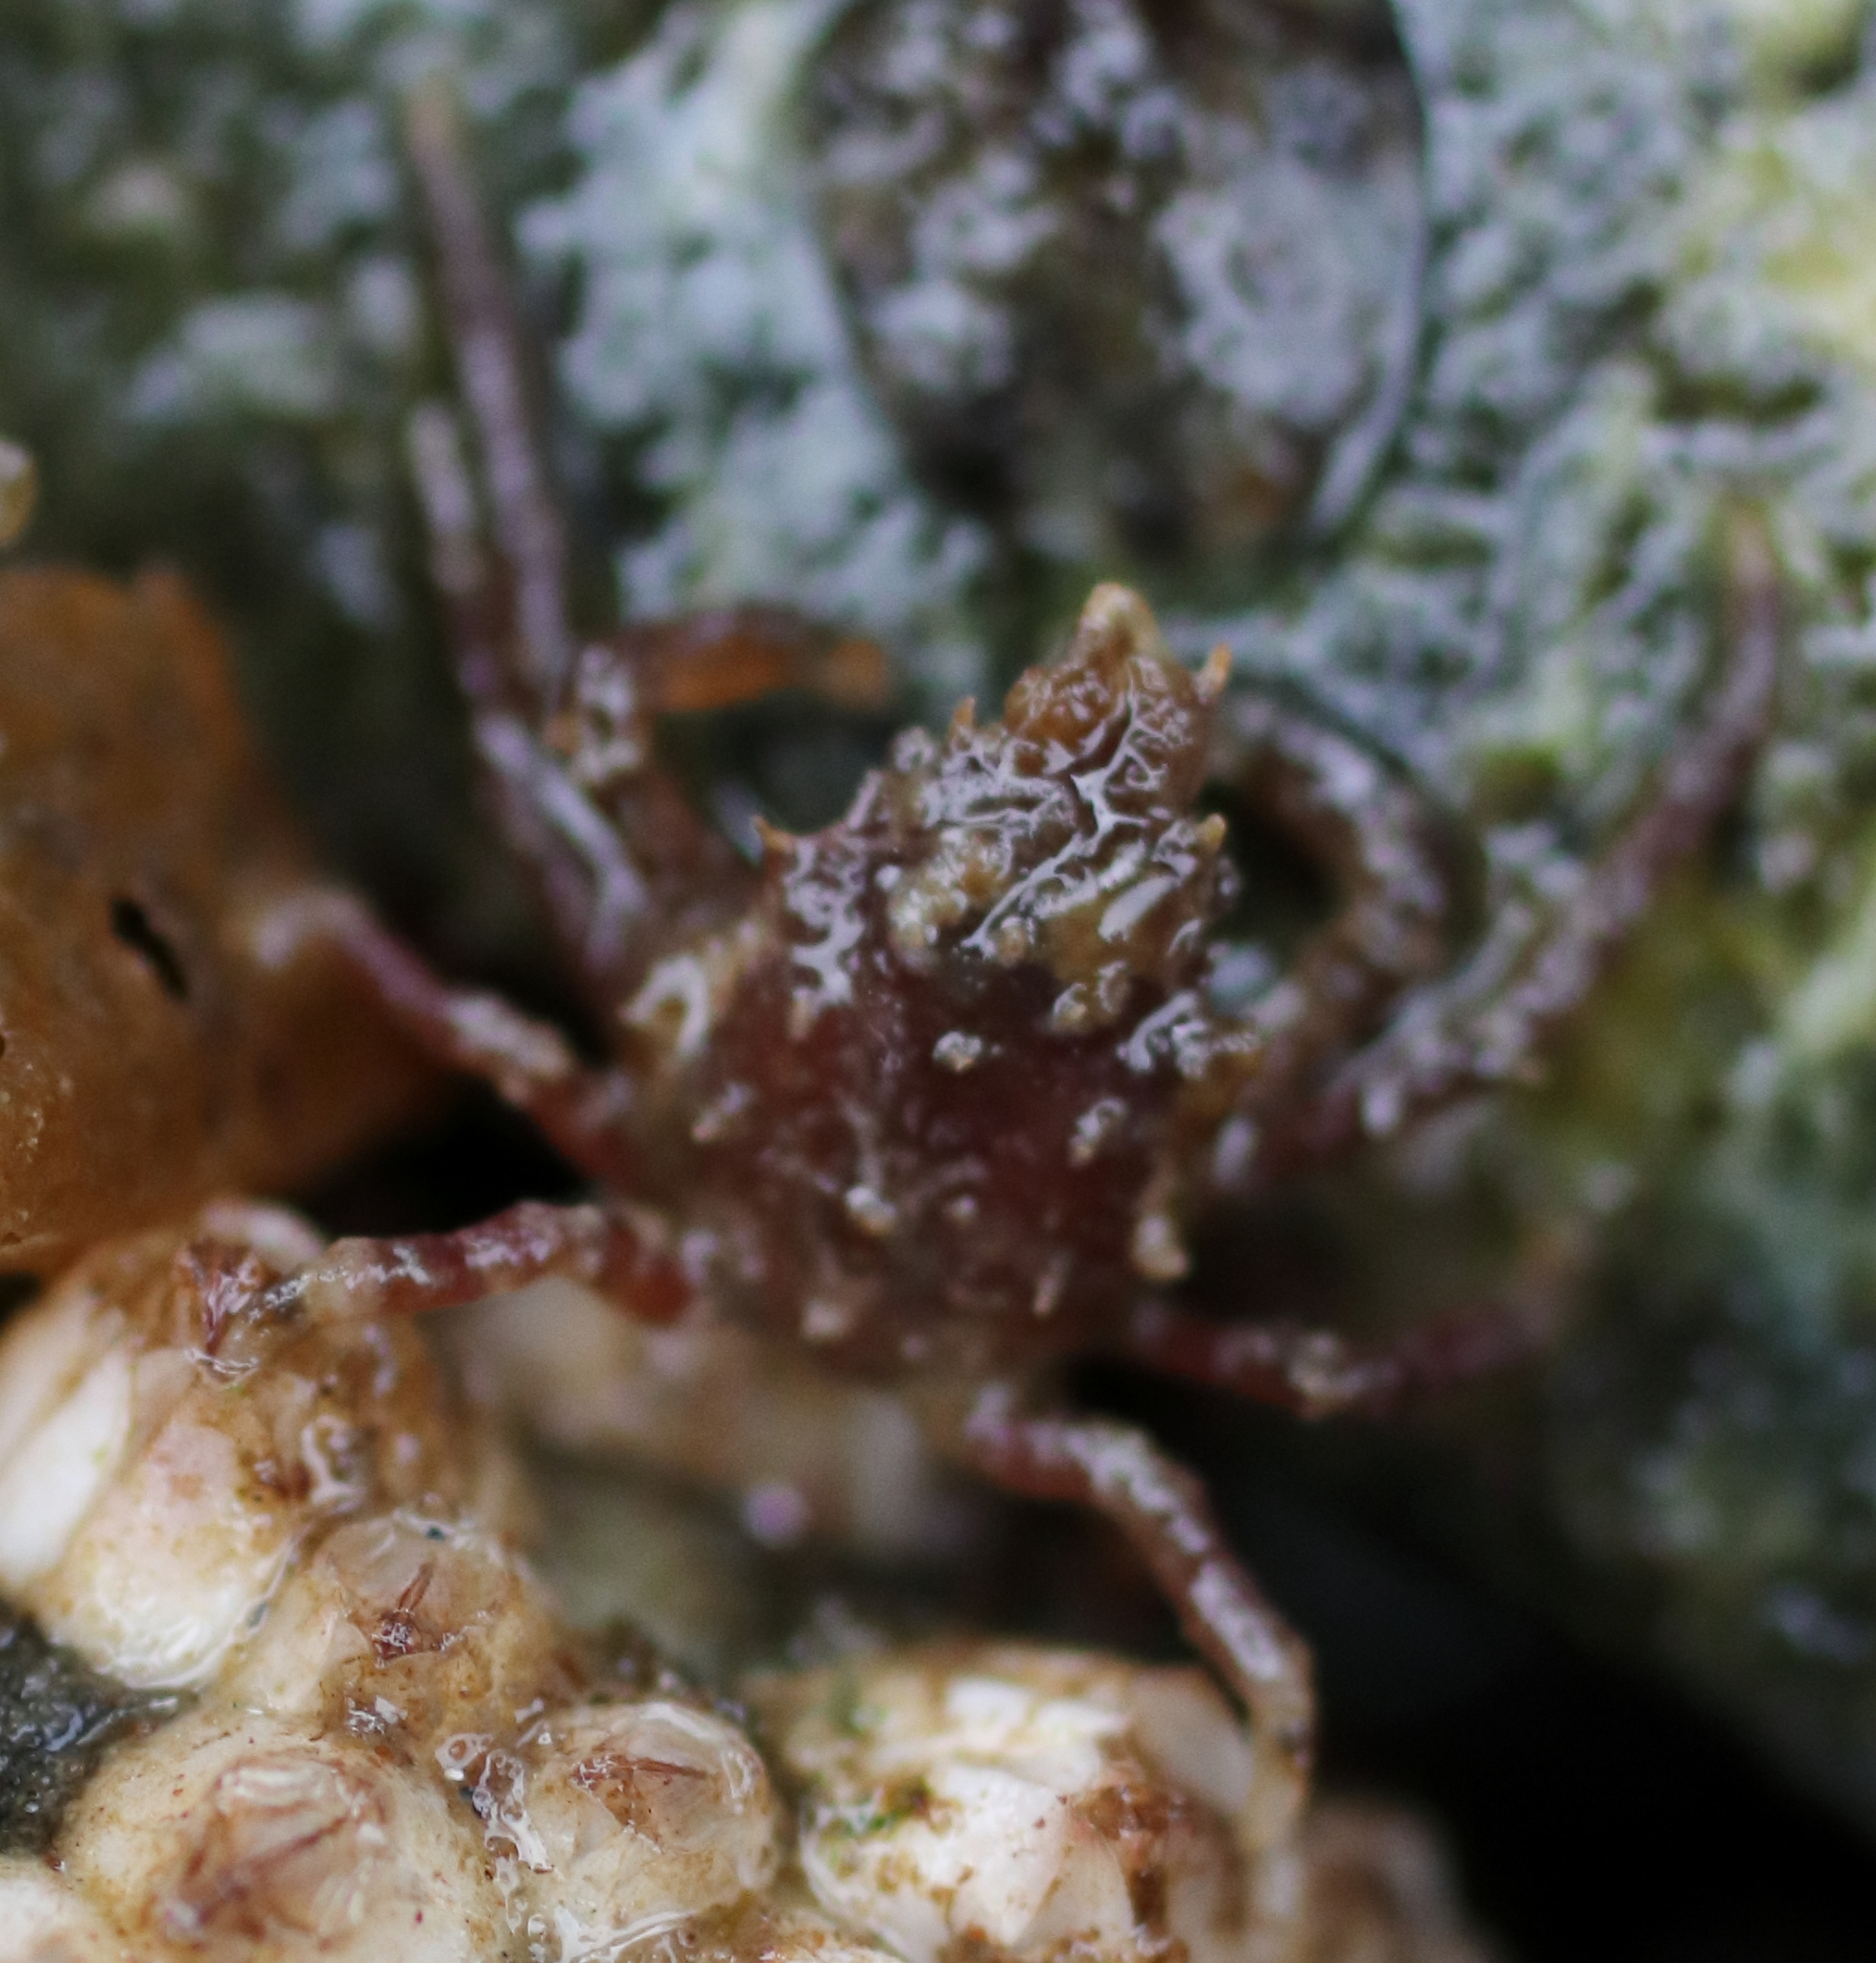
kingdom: Animalia
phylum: Arthropoda
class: Malacostraca
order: Decapoda
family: Epialtidae
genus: Pugettia
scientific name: Pugettia gracilis
